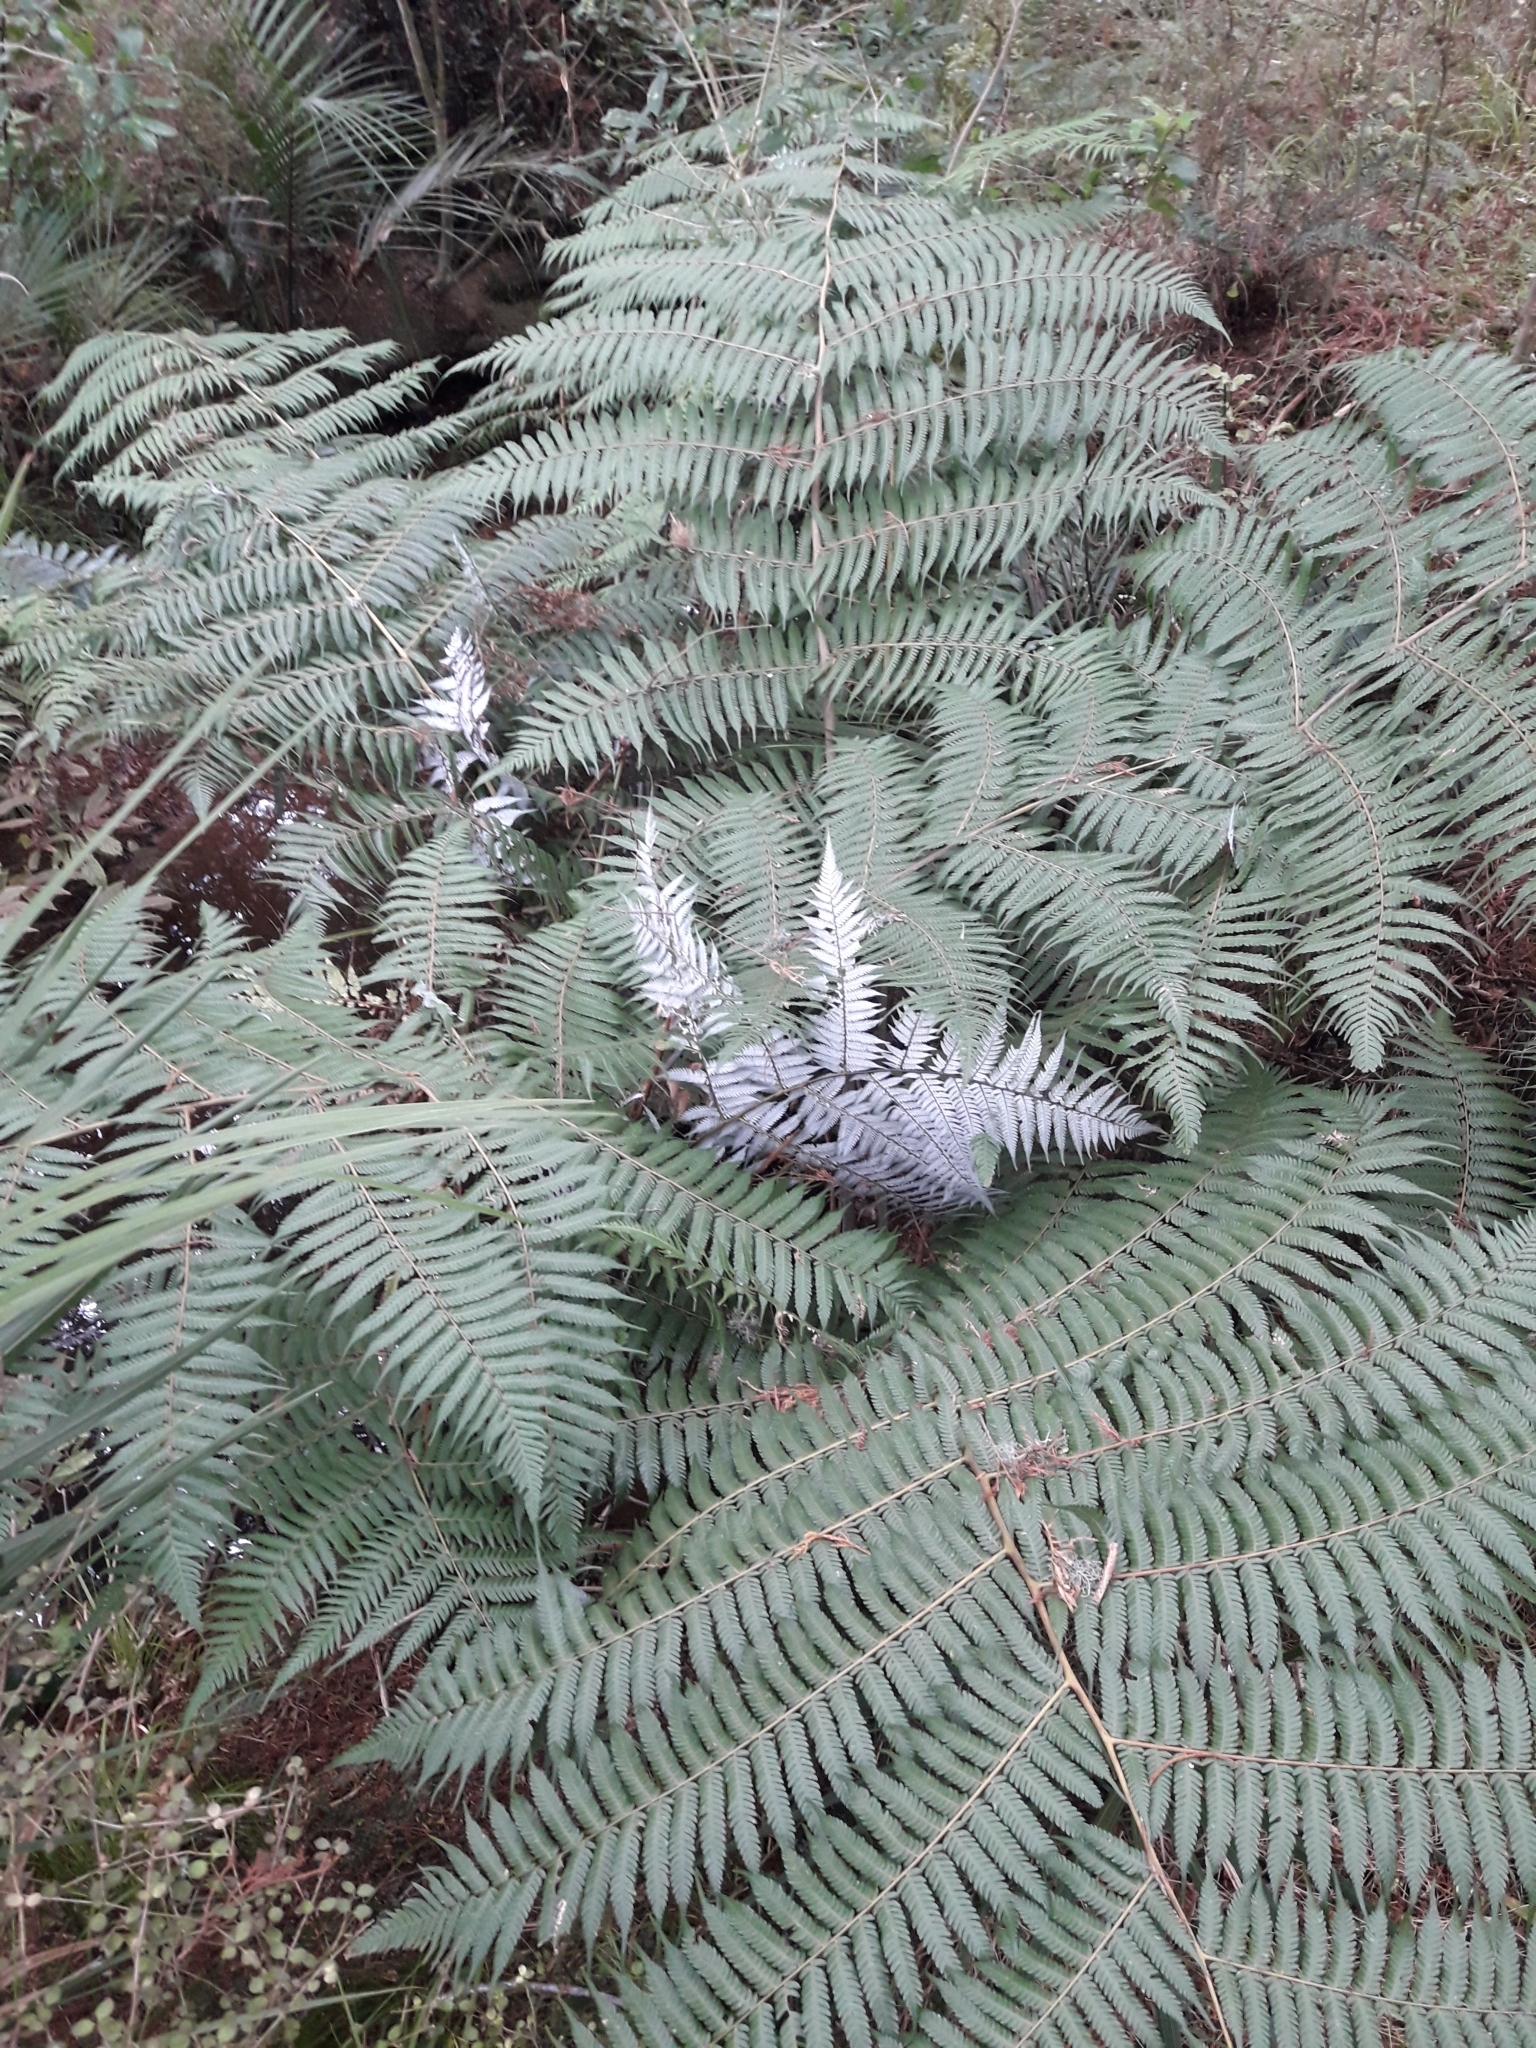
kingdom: Plantae
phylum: Tracheophyta
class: Polypodiopsida
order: Cyatheales
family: Cyatheaceae
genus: Alsophila
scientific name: Alsophila dealbata
